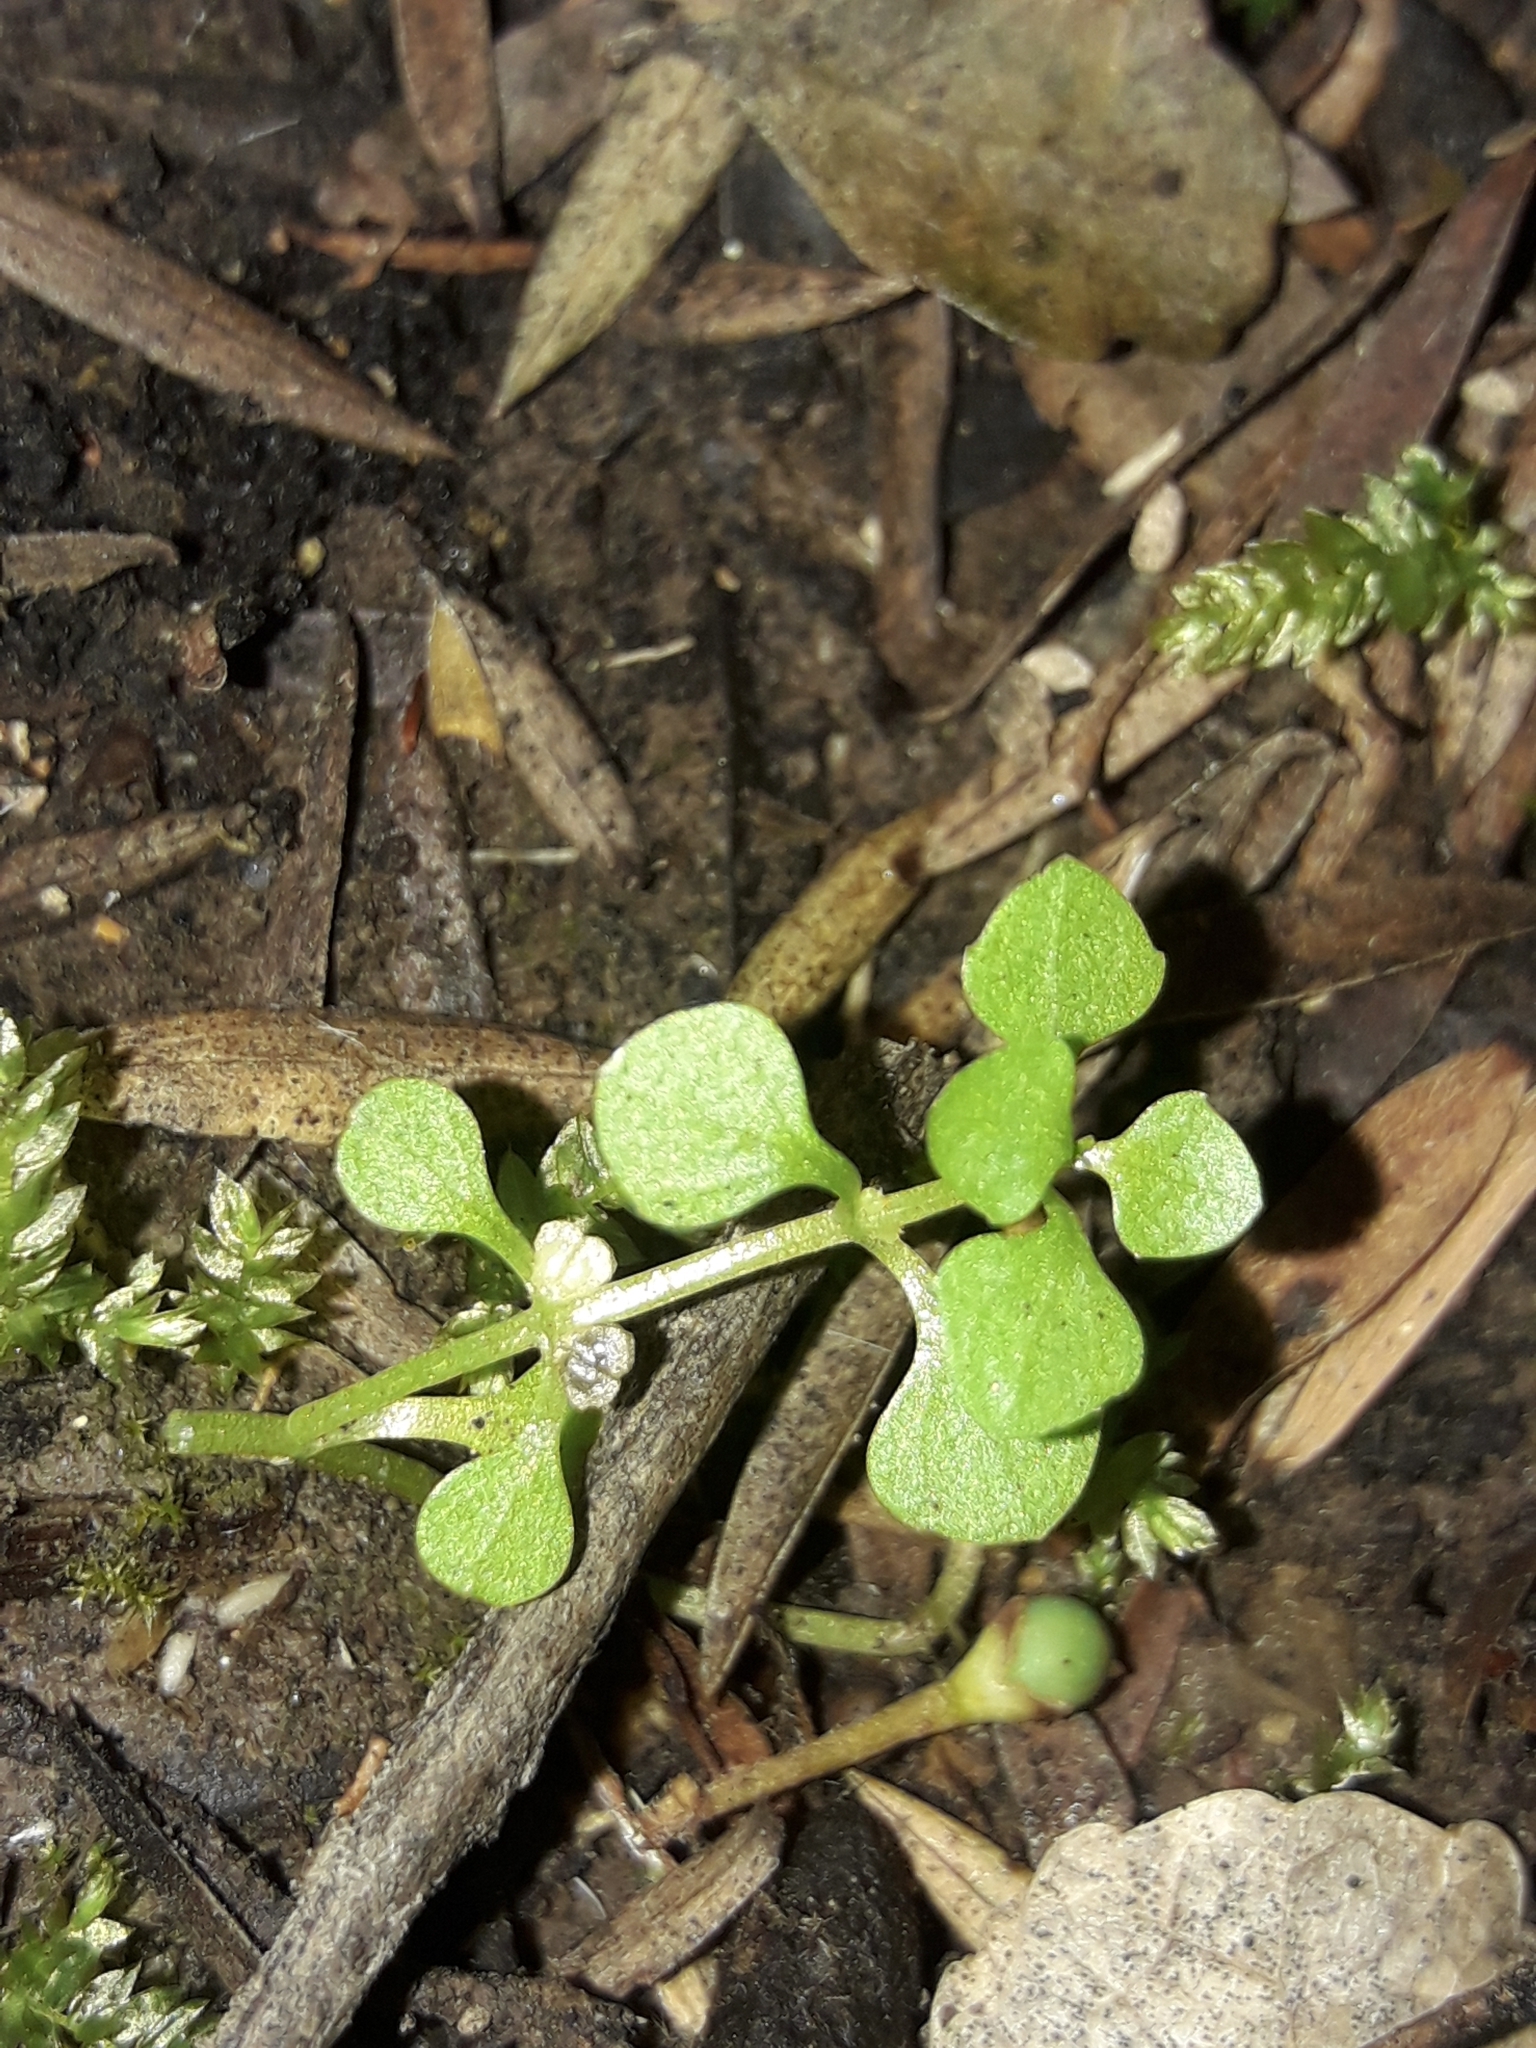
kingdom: Plantae
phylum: Tracheophyta
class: Magnoliopsida
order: Lamiales
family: Plantaginaceae
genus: Callitriche
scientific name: Callitriche muelleri
